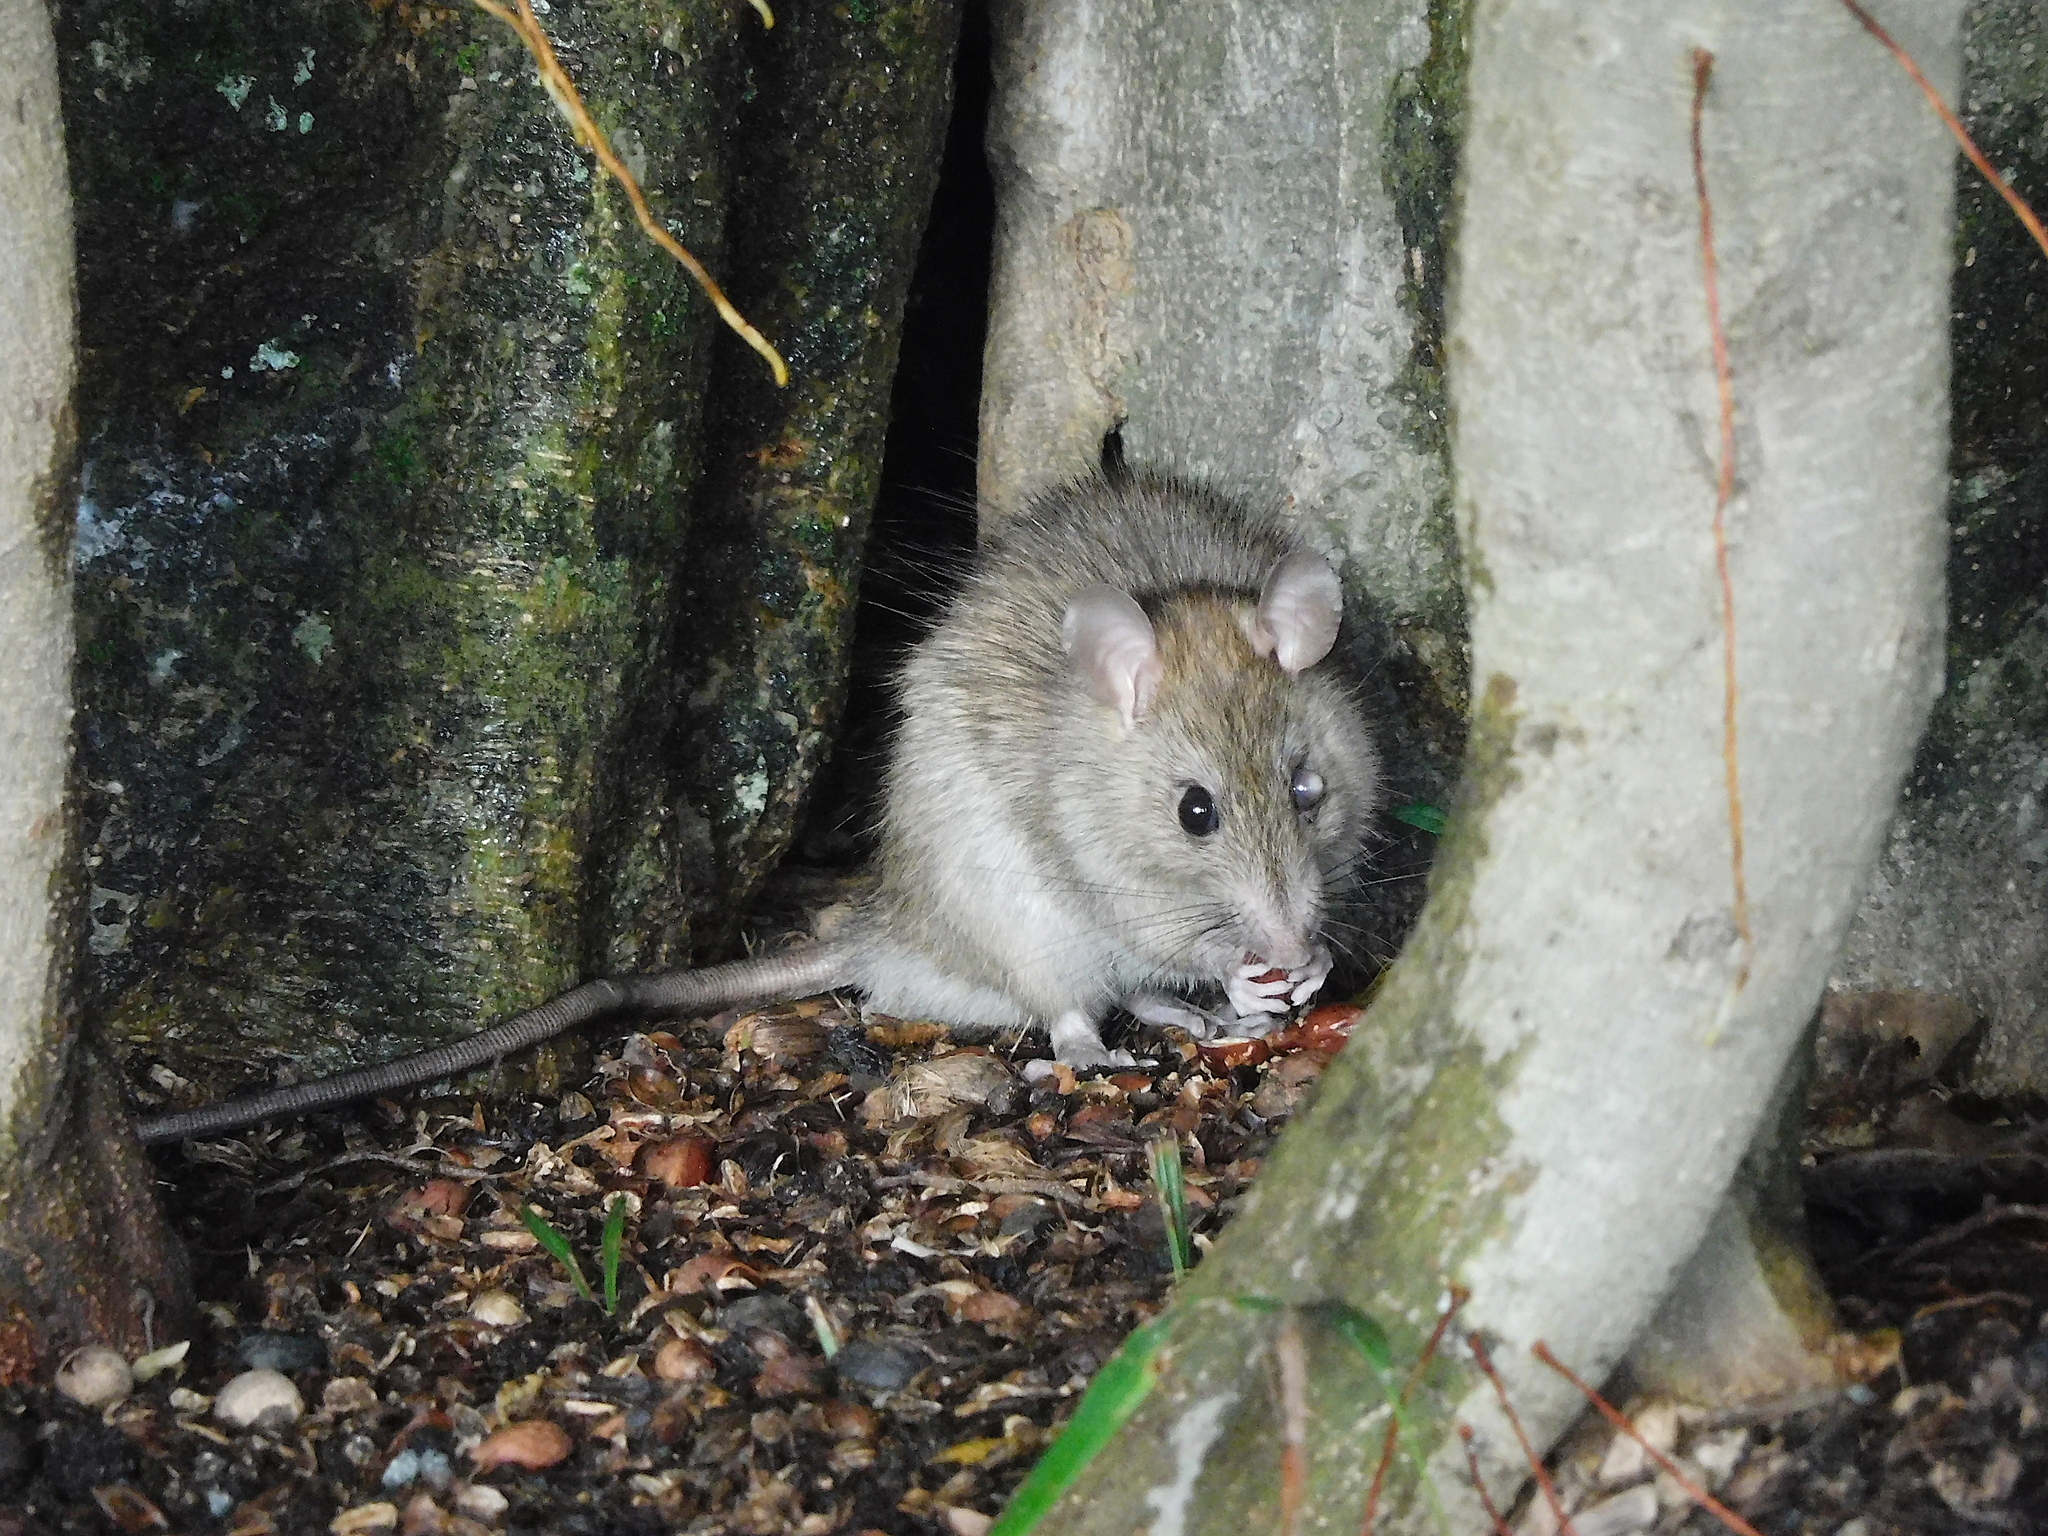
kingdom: Animalia
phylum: Chordata
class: Mammalia
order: Rodentia
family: Muridae
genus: Rattus
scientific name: Rattus rattus
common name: Black rat
